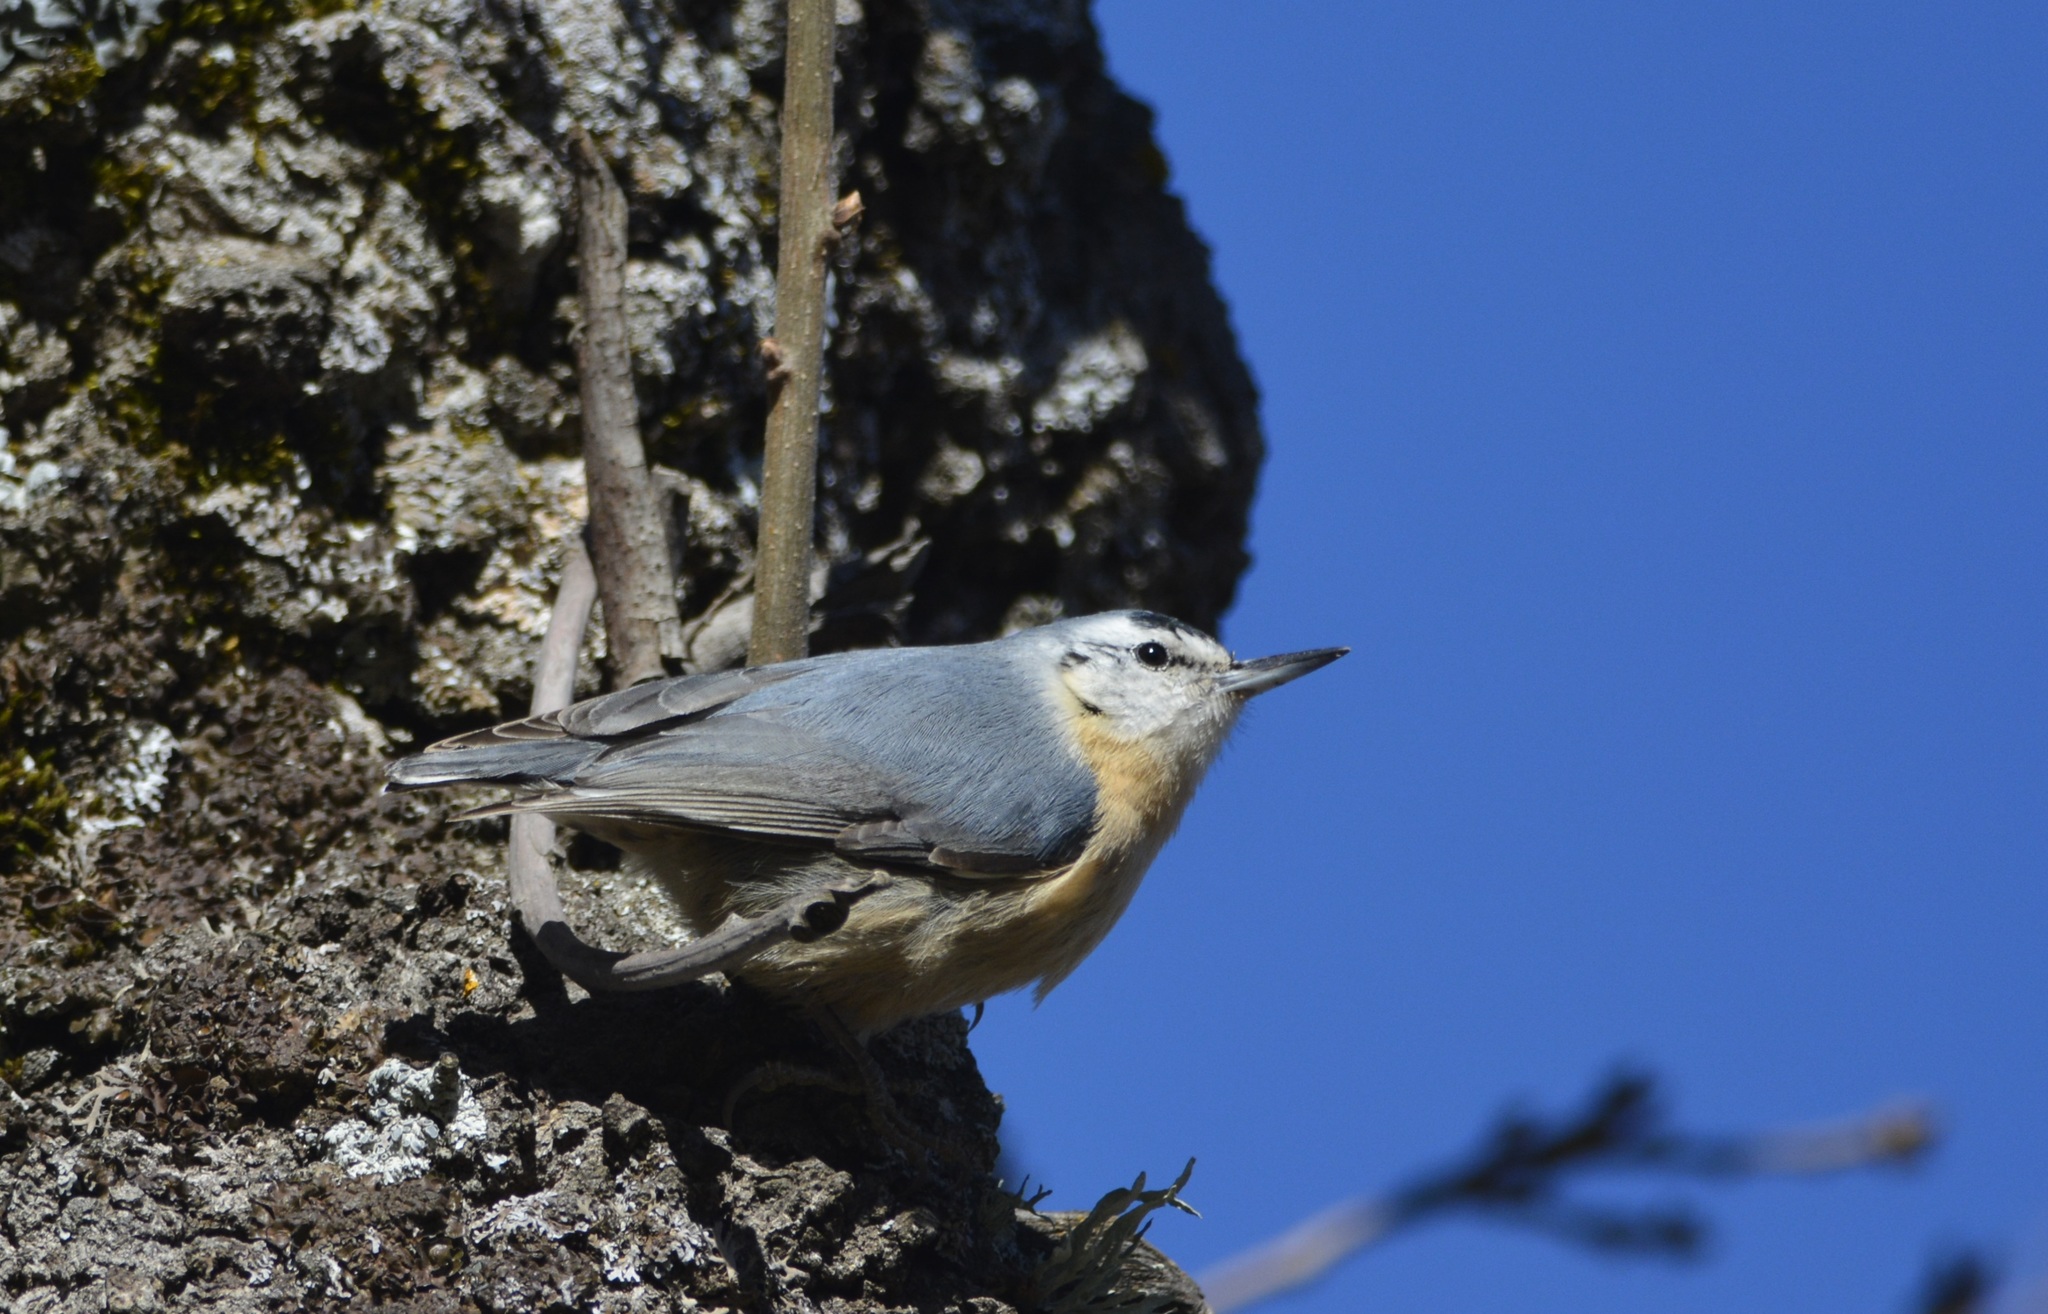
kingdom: Animalia
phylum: Chordata
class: Aves
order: Passeriformes
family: Sittidae
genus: Sitta
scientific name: Sitta ledanti
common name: Algerian nuthatch
